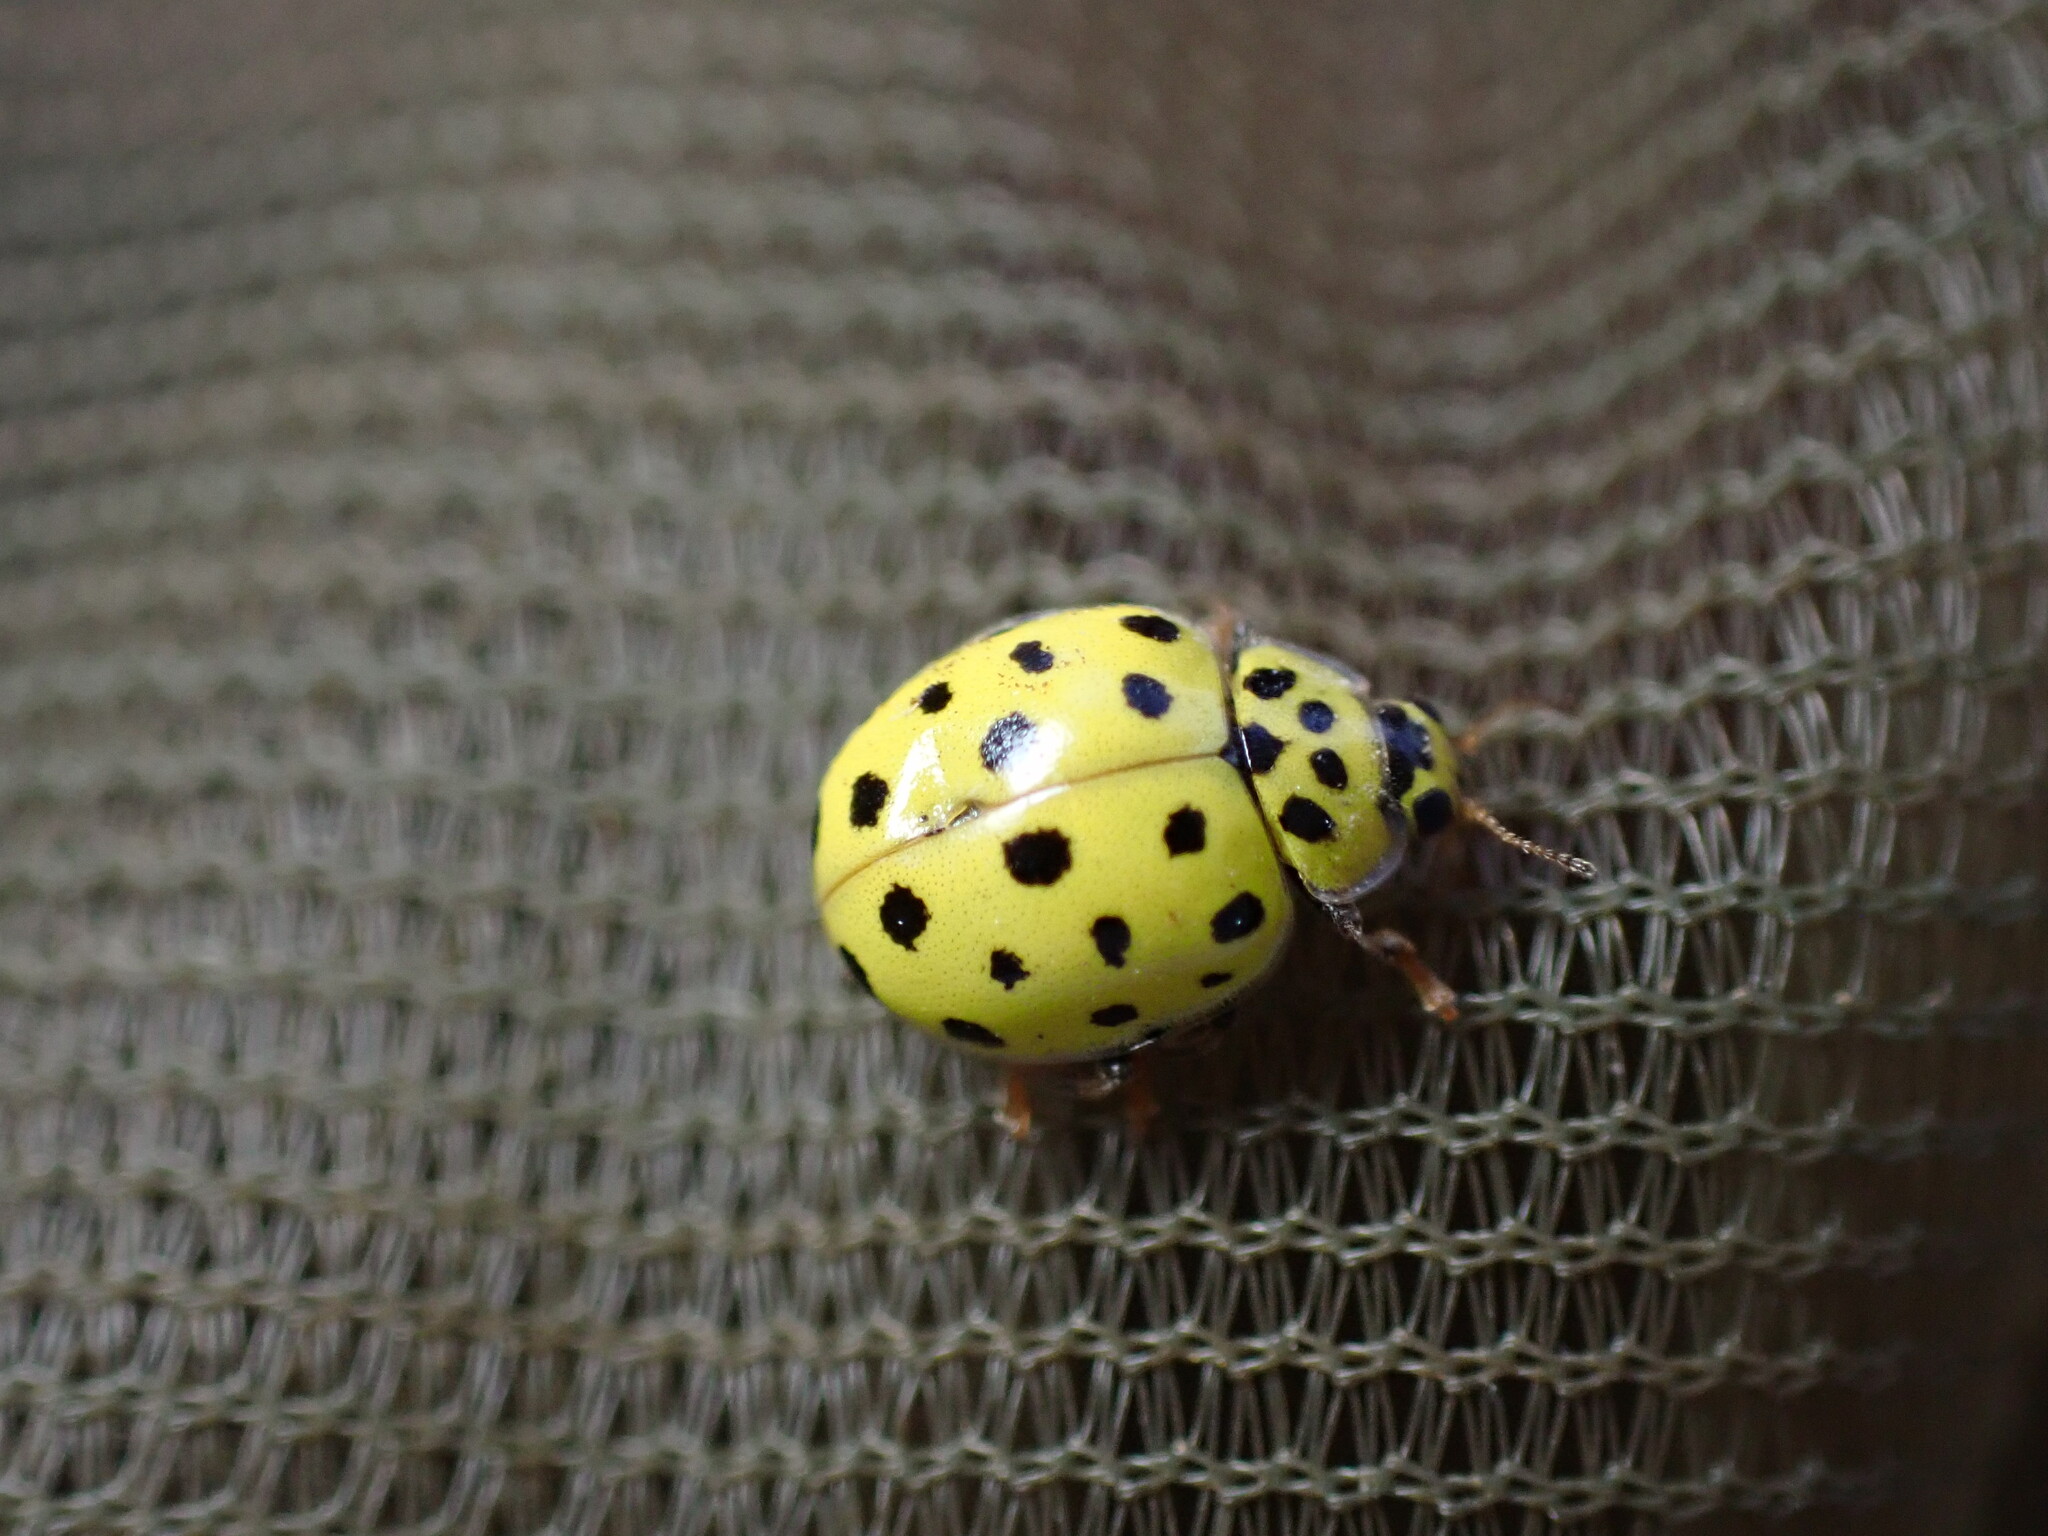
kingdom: Animalia
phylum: Arthropoda
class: Insecta
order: Coleoptera
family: Coccinellidae
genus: Psyllobora
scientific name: Psyllobora vigintiduopunctata
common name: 22-spot ladybird
